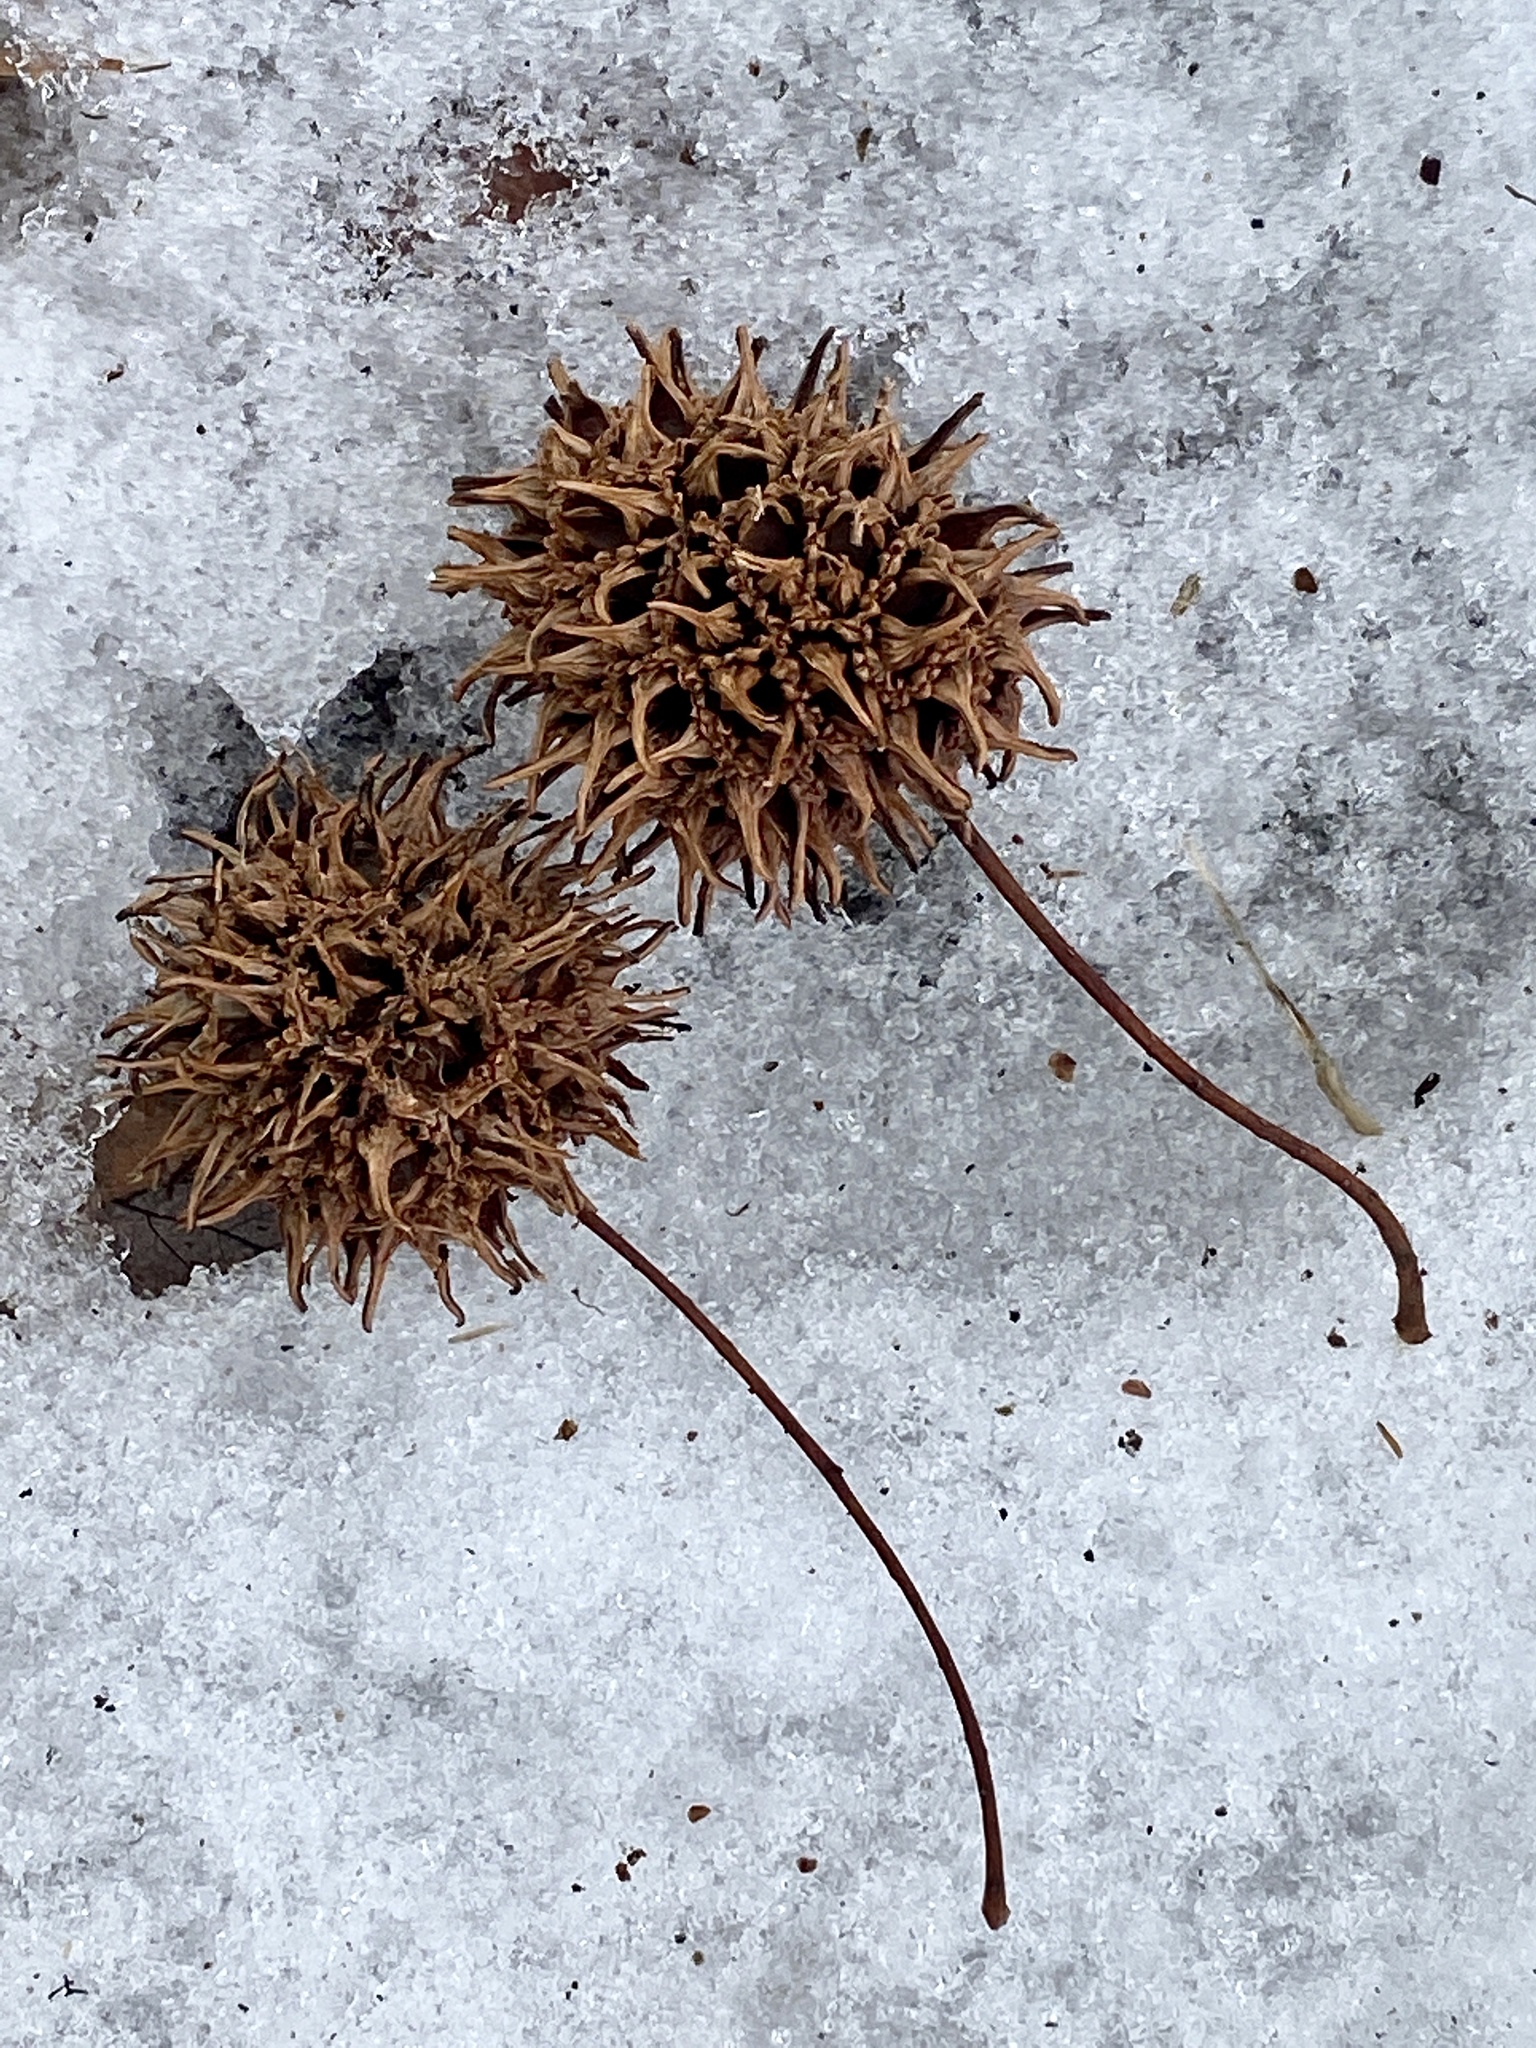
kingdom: Plantae
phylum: Tracheophyta
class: Magnoliopsida
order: Saxifragales
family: Altingiaceae
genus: Liquidambar
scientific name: Liquidambar styraciflua
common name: Sweet gum
